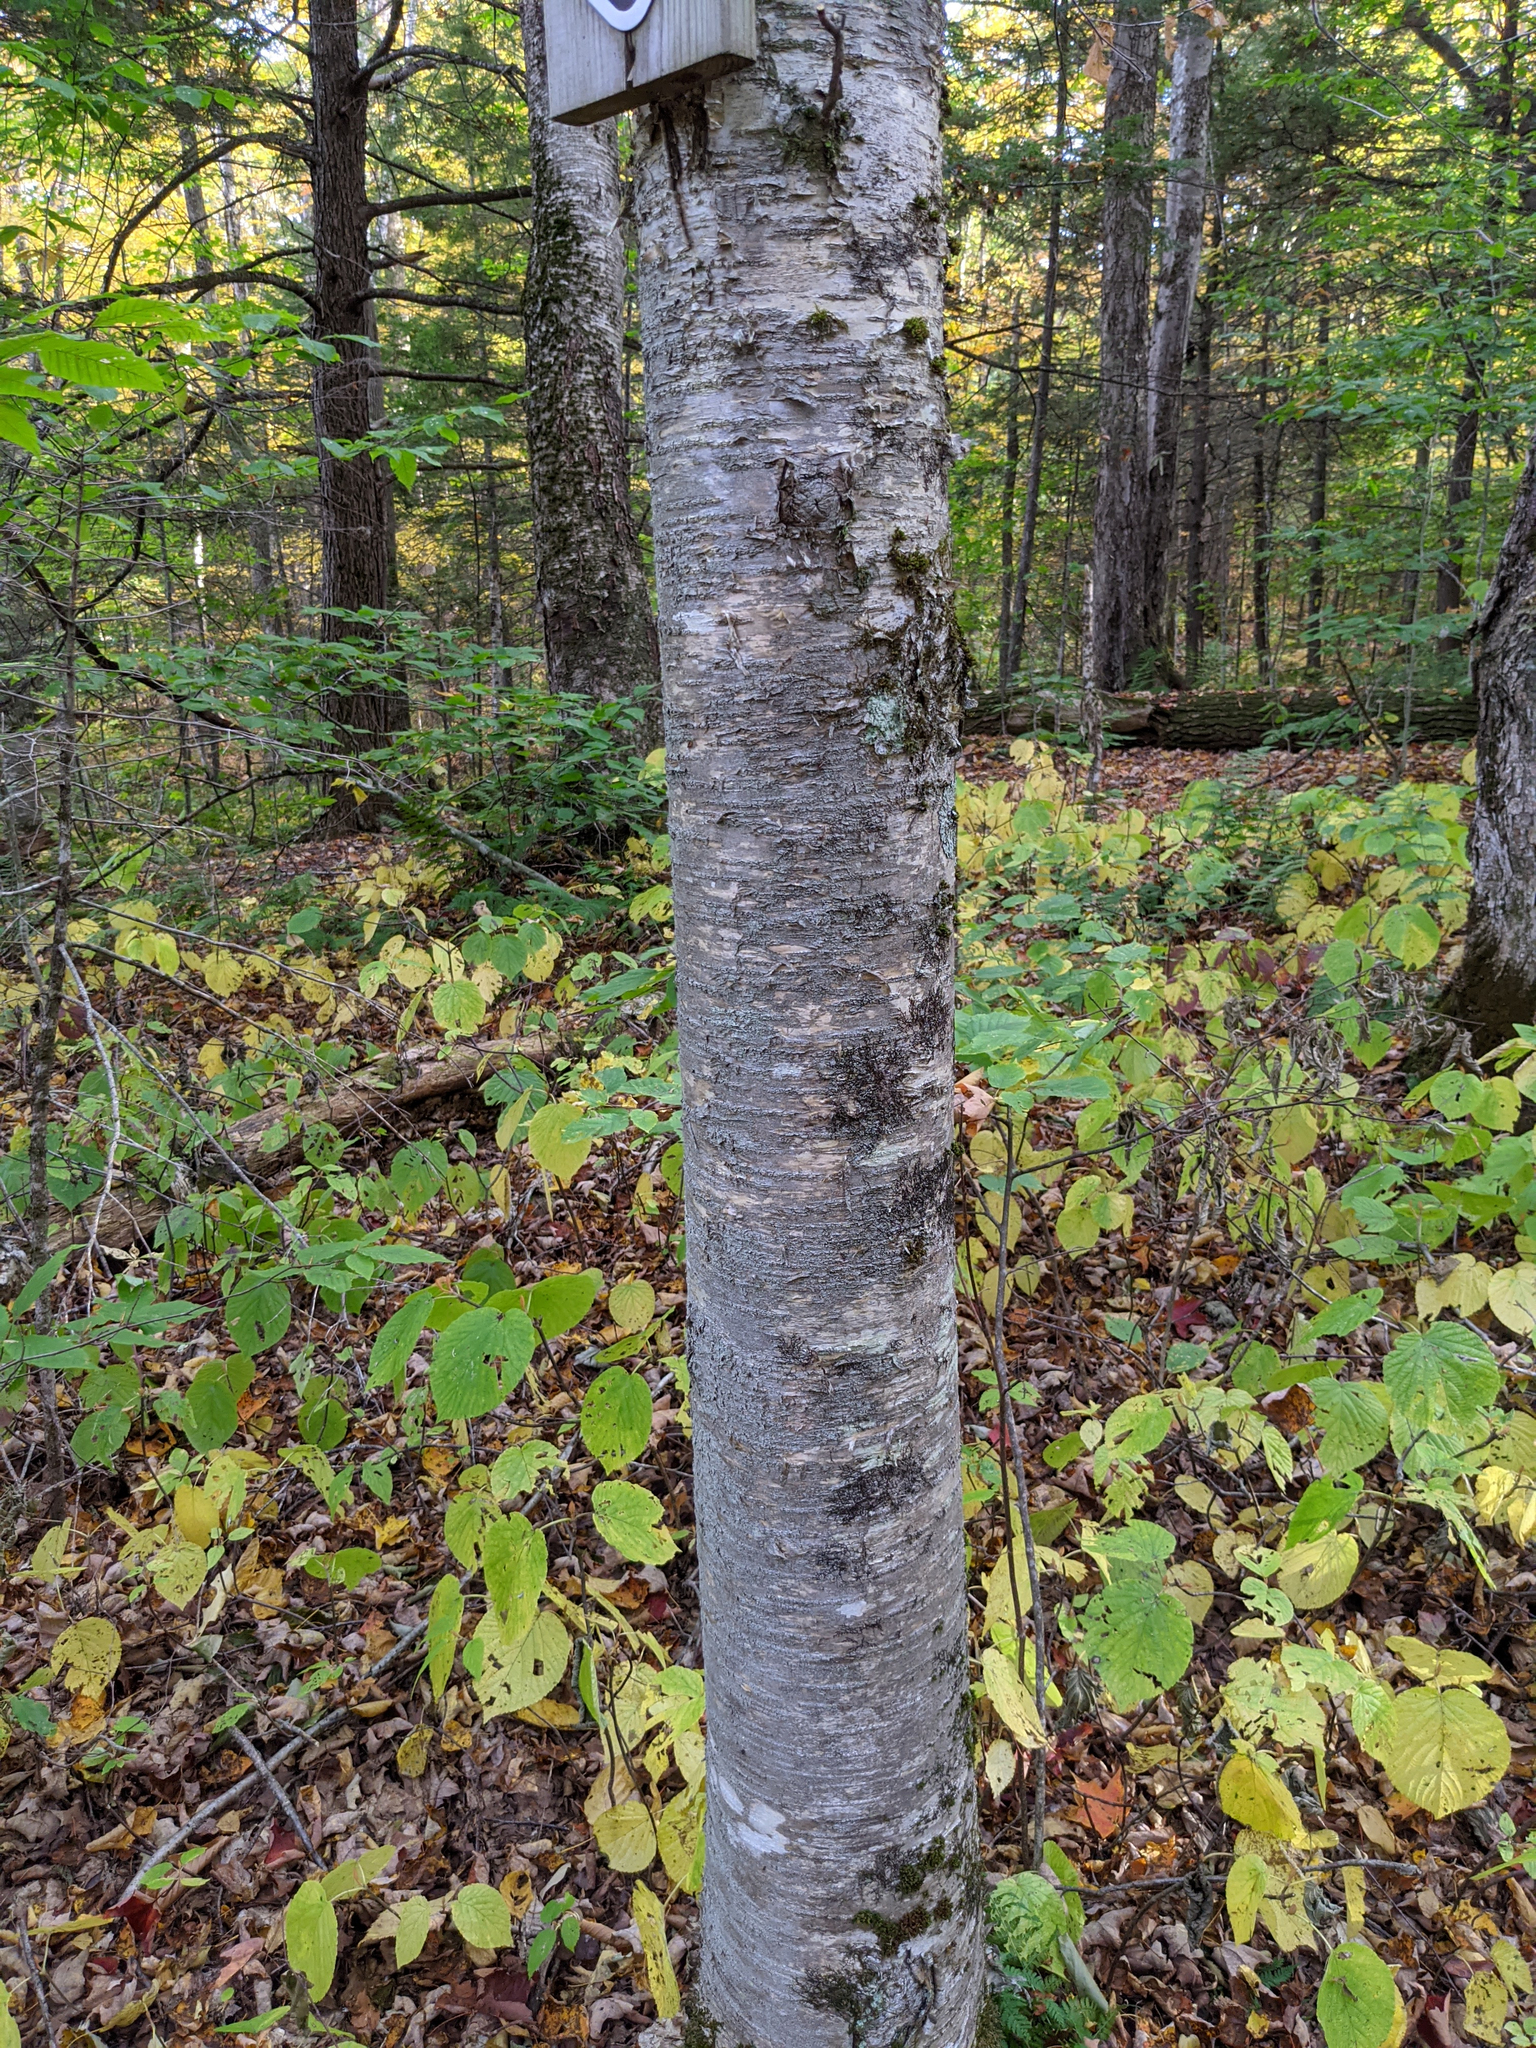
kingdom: Plantae
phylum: Tracheophyta
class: Magnoliopsida
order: Fagales
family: Betulaceae
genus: Betula
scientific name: Betula alleghaniensis
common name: Yellow birch
